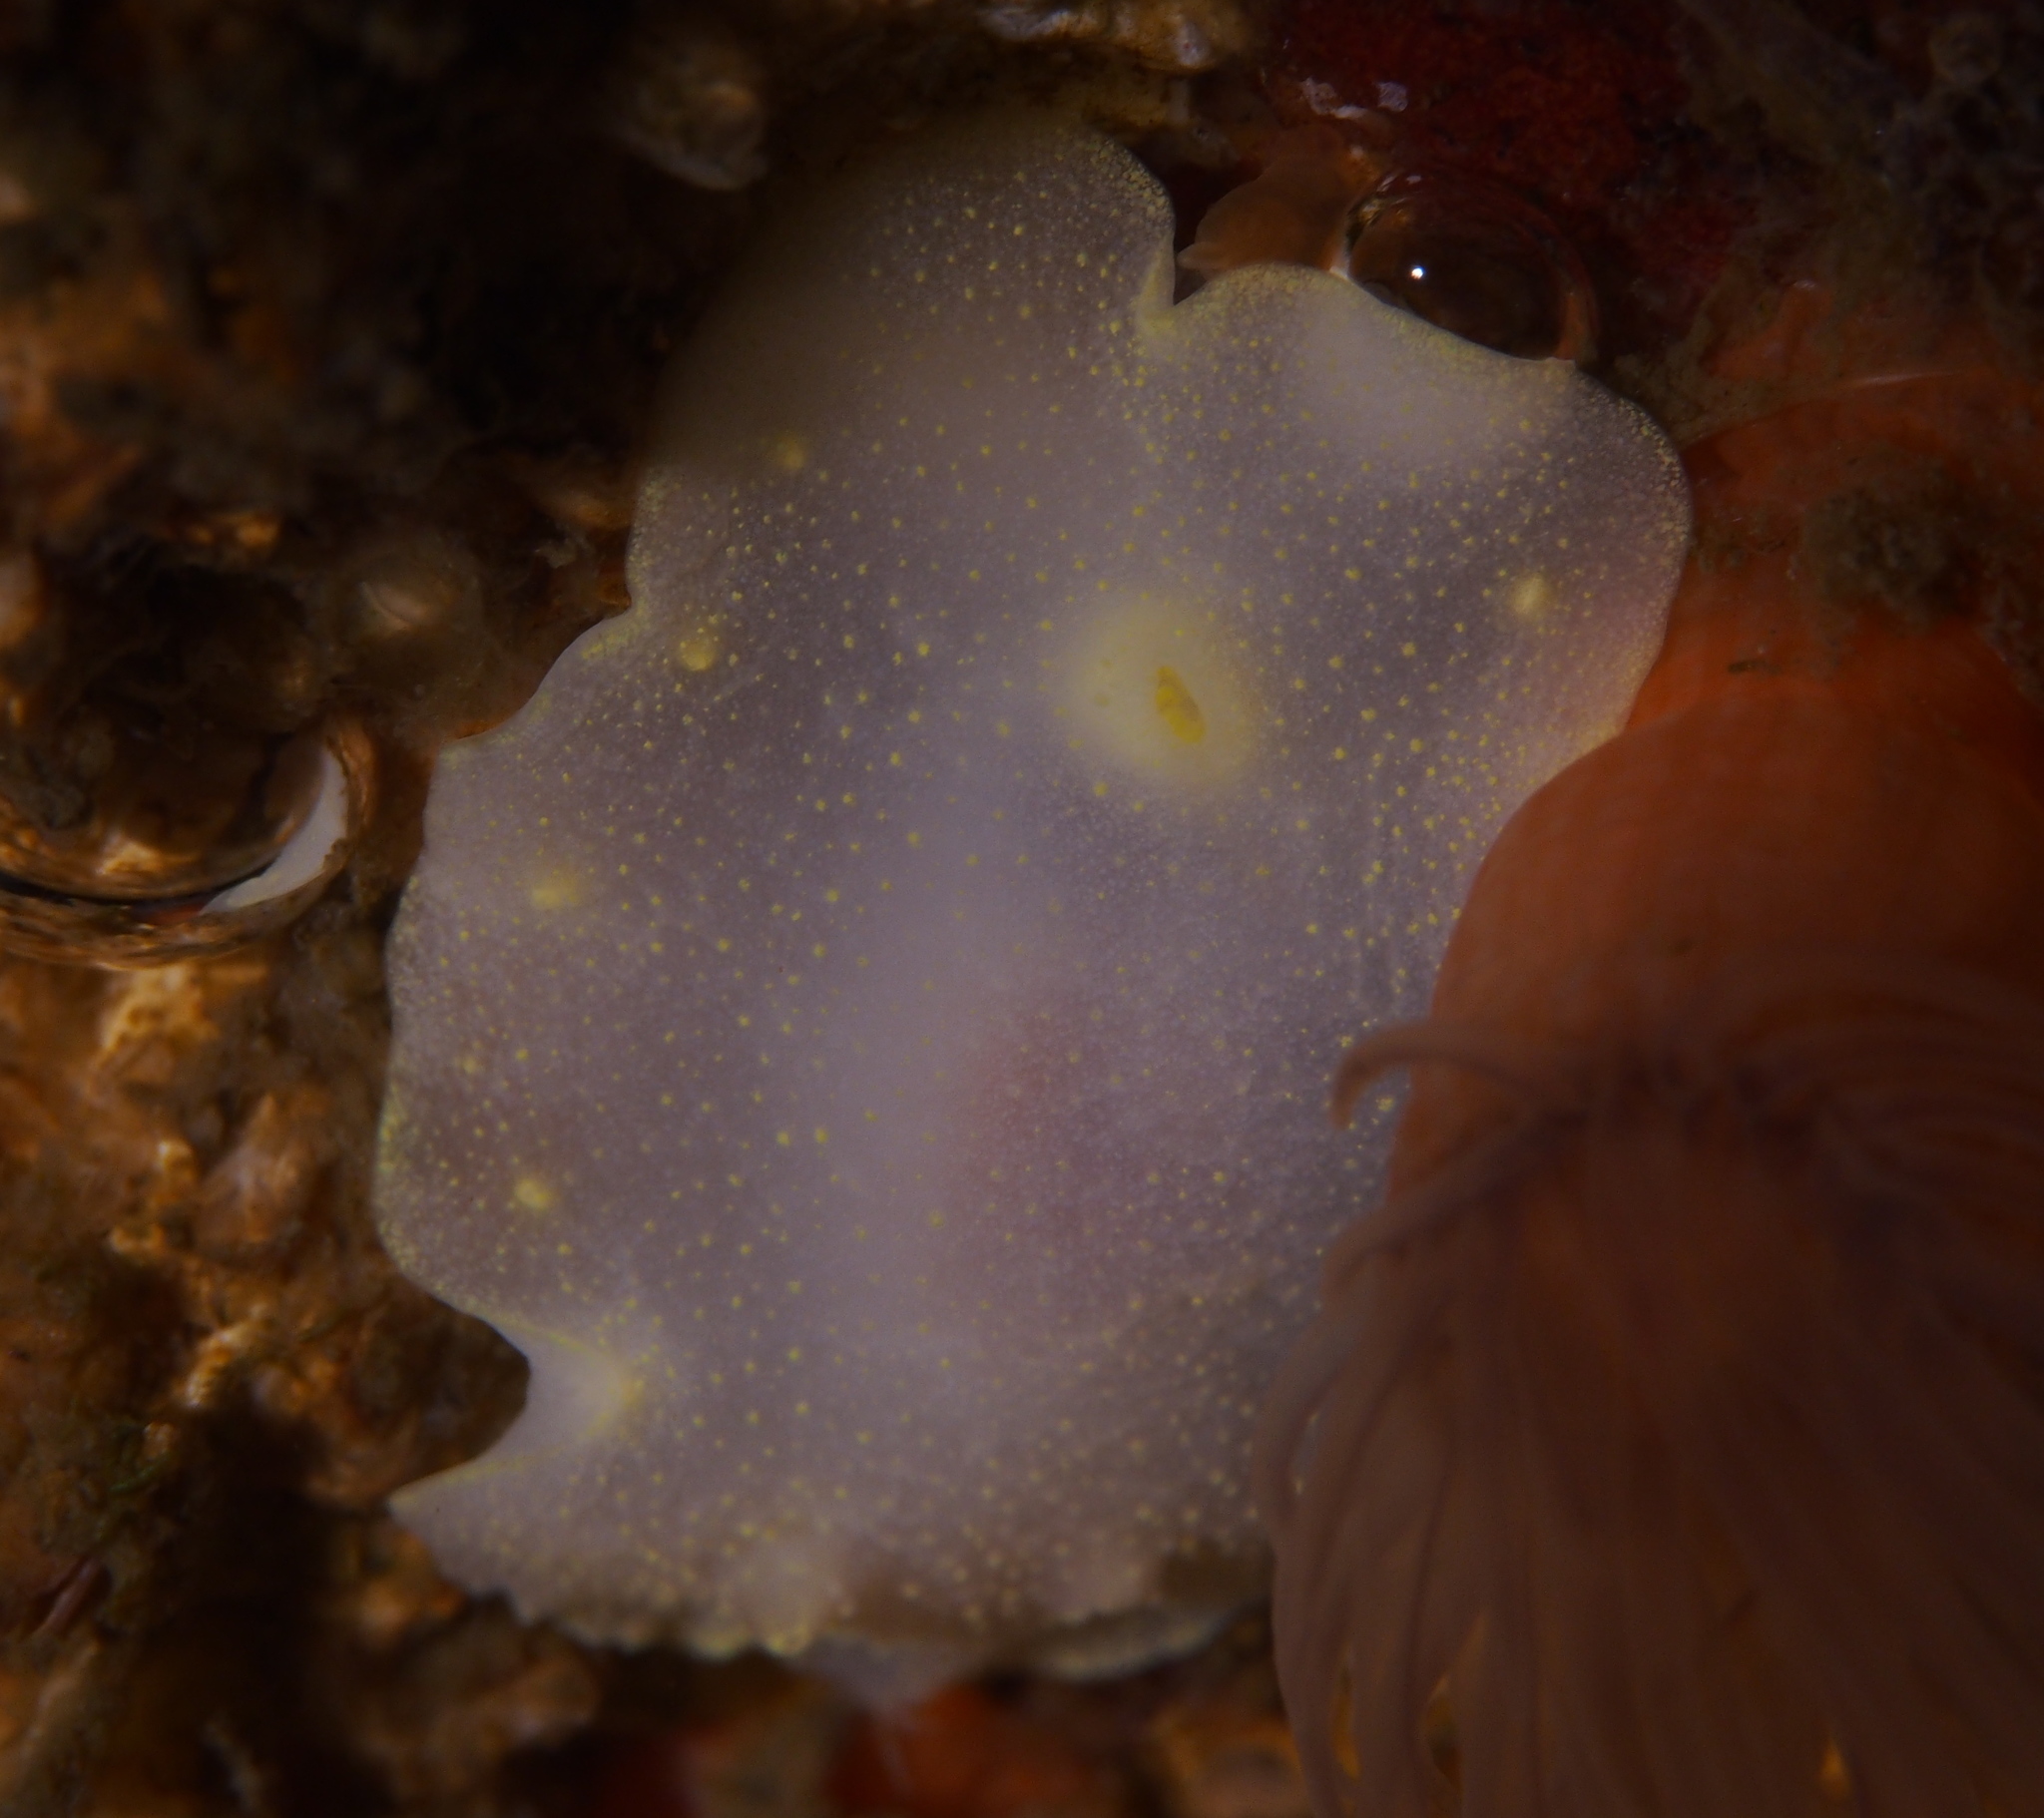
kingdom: Animalia
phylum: Mollusca
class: Gastropoda
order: Nudibranchia
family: Cadlinidae
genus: Cadlina
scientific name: Cadlina laevis
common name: White atlantic cadlina
